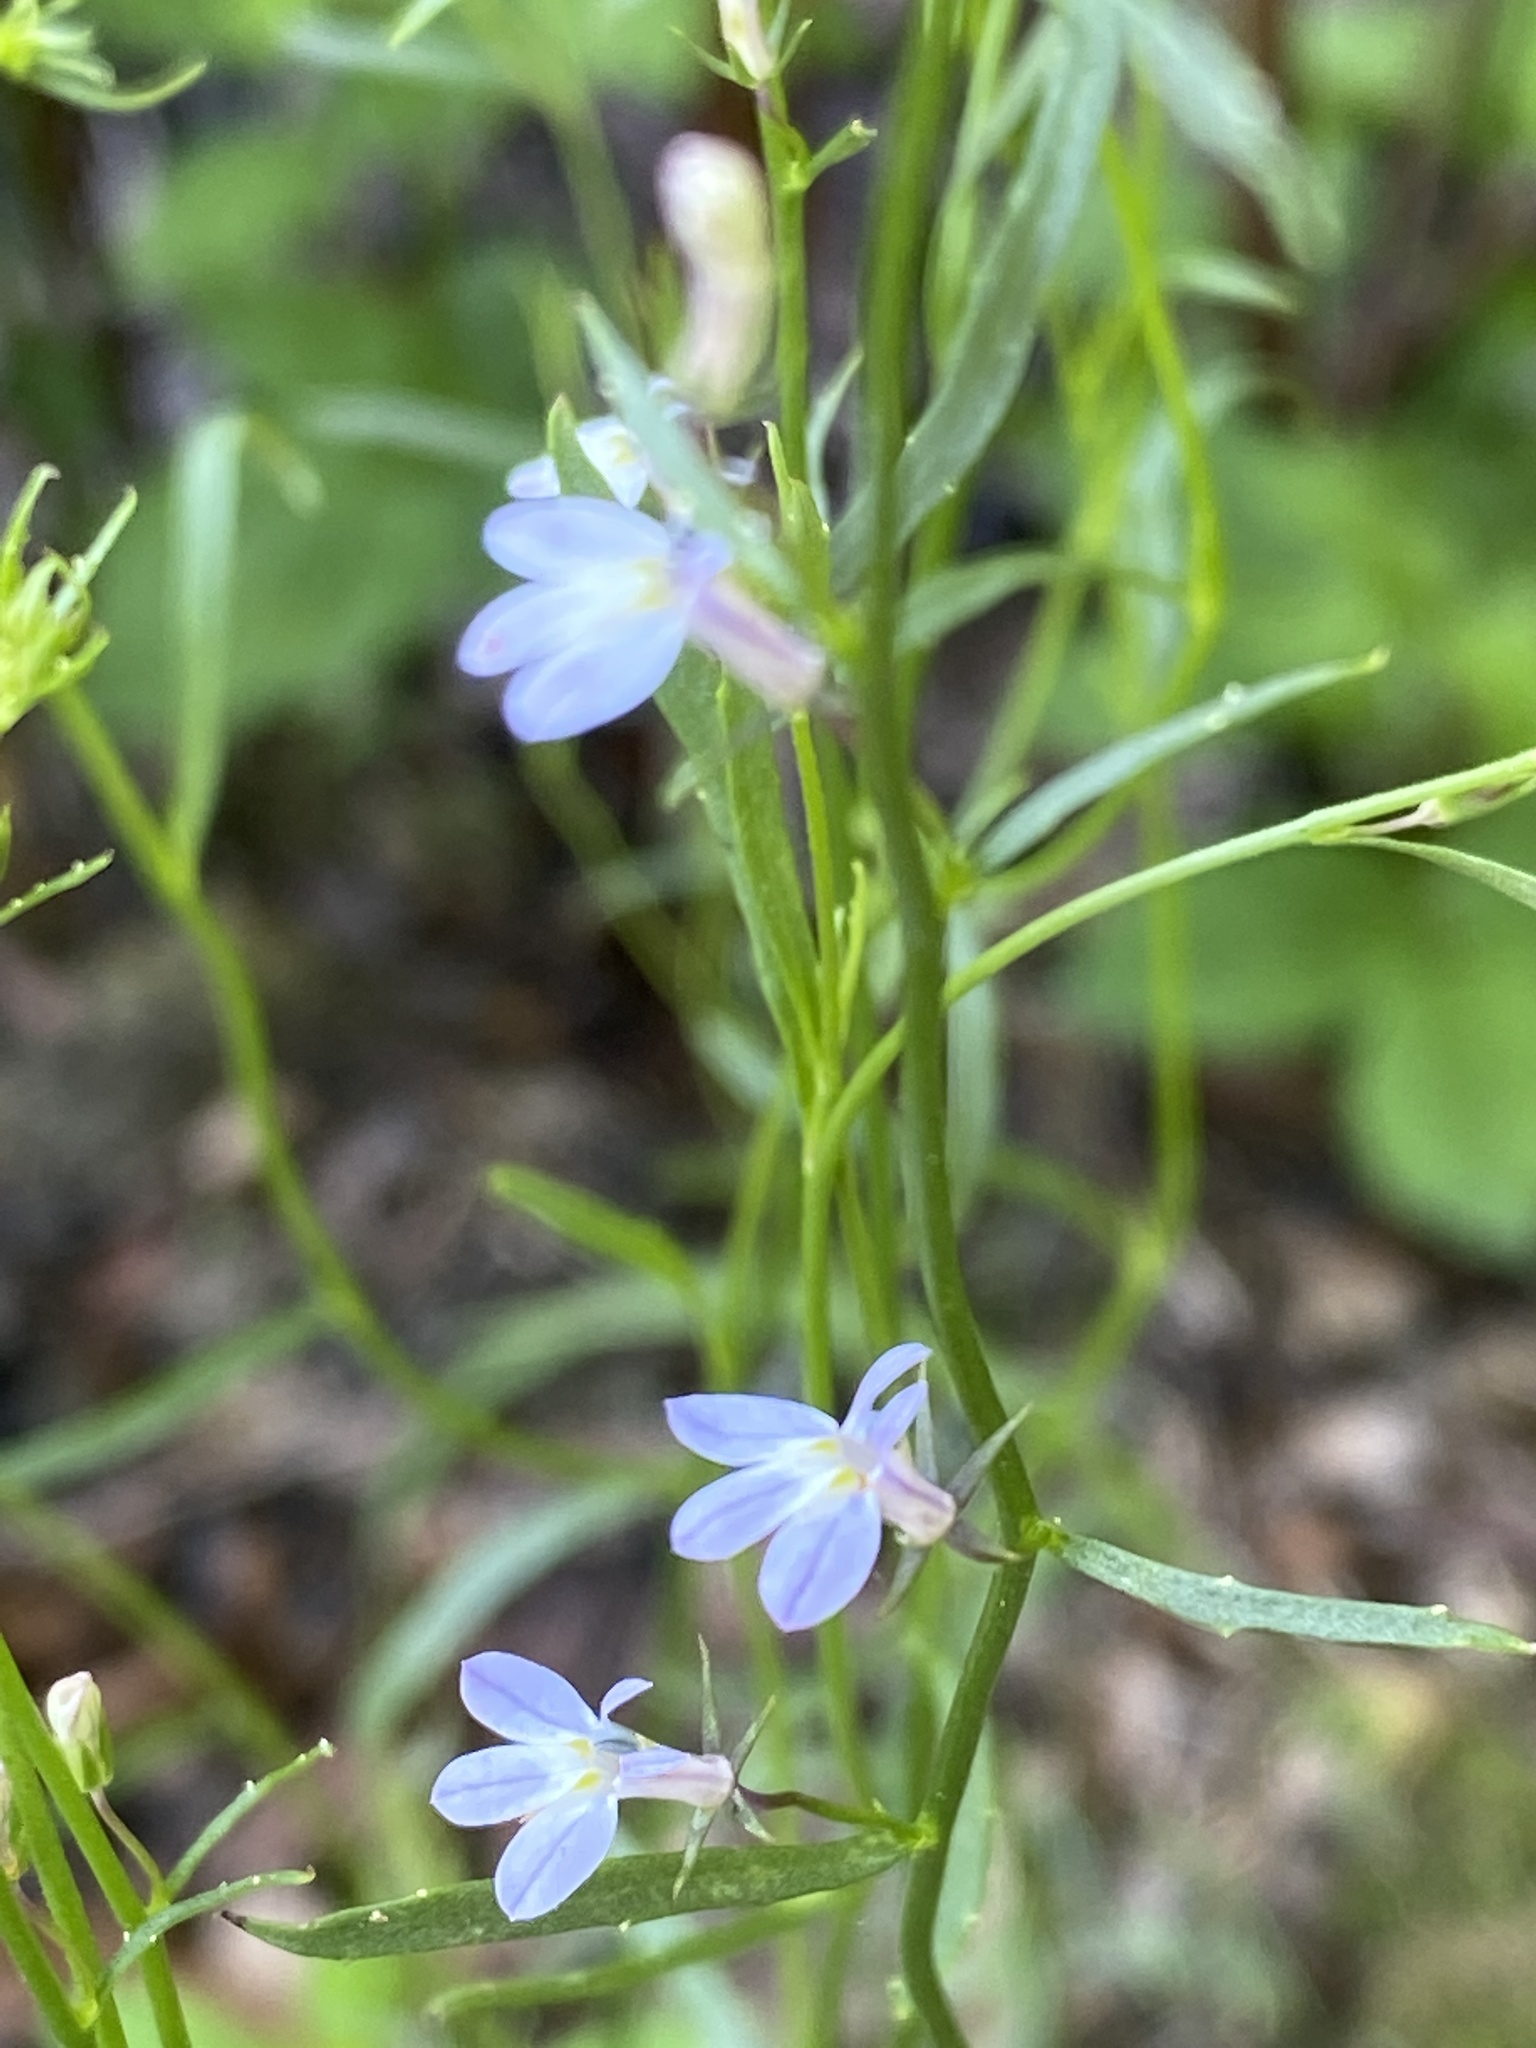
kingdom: Plantae
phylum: Tracheophyta
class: Magnoliopsida
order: Asterales
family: Campanulaceae
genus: Lobelia
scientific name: Lobelia nuttallii
